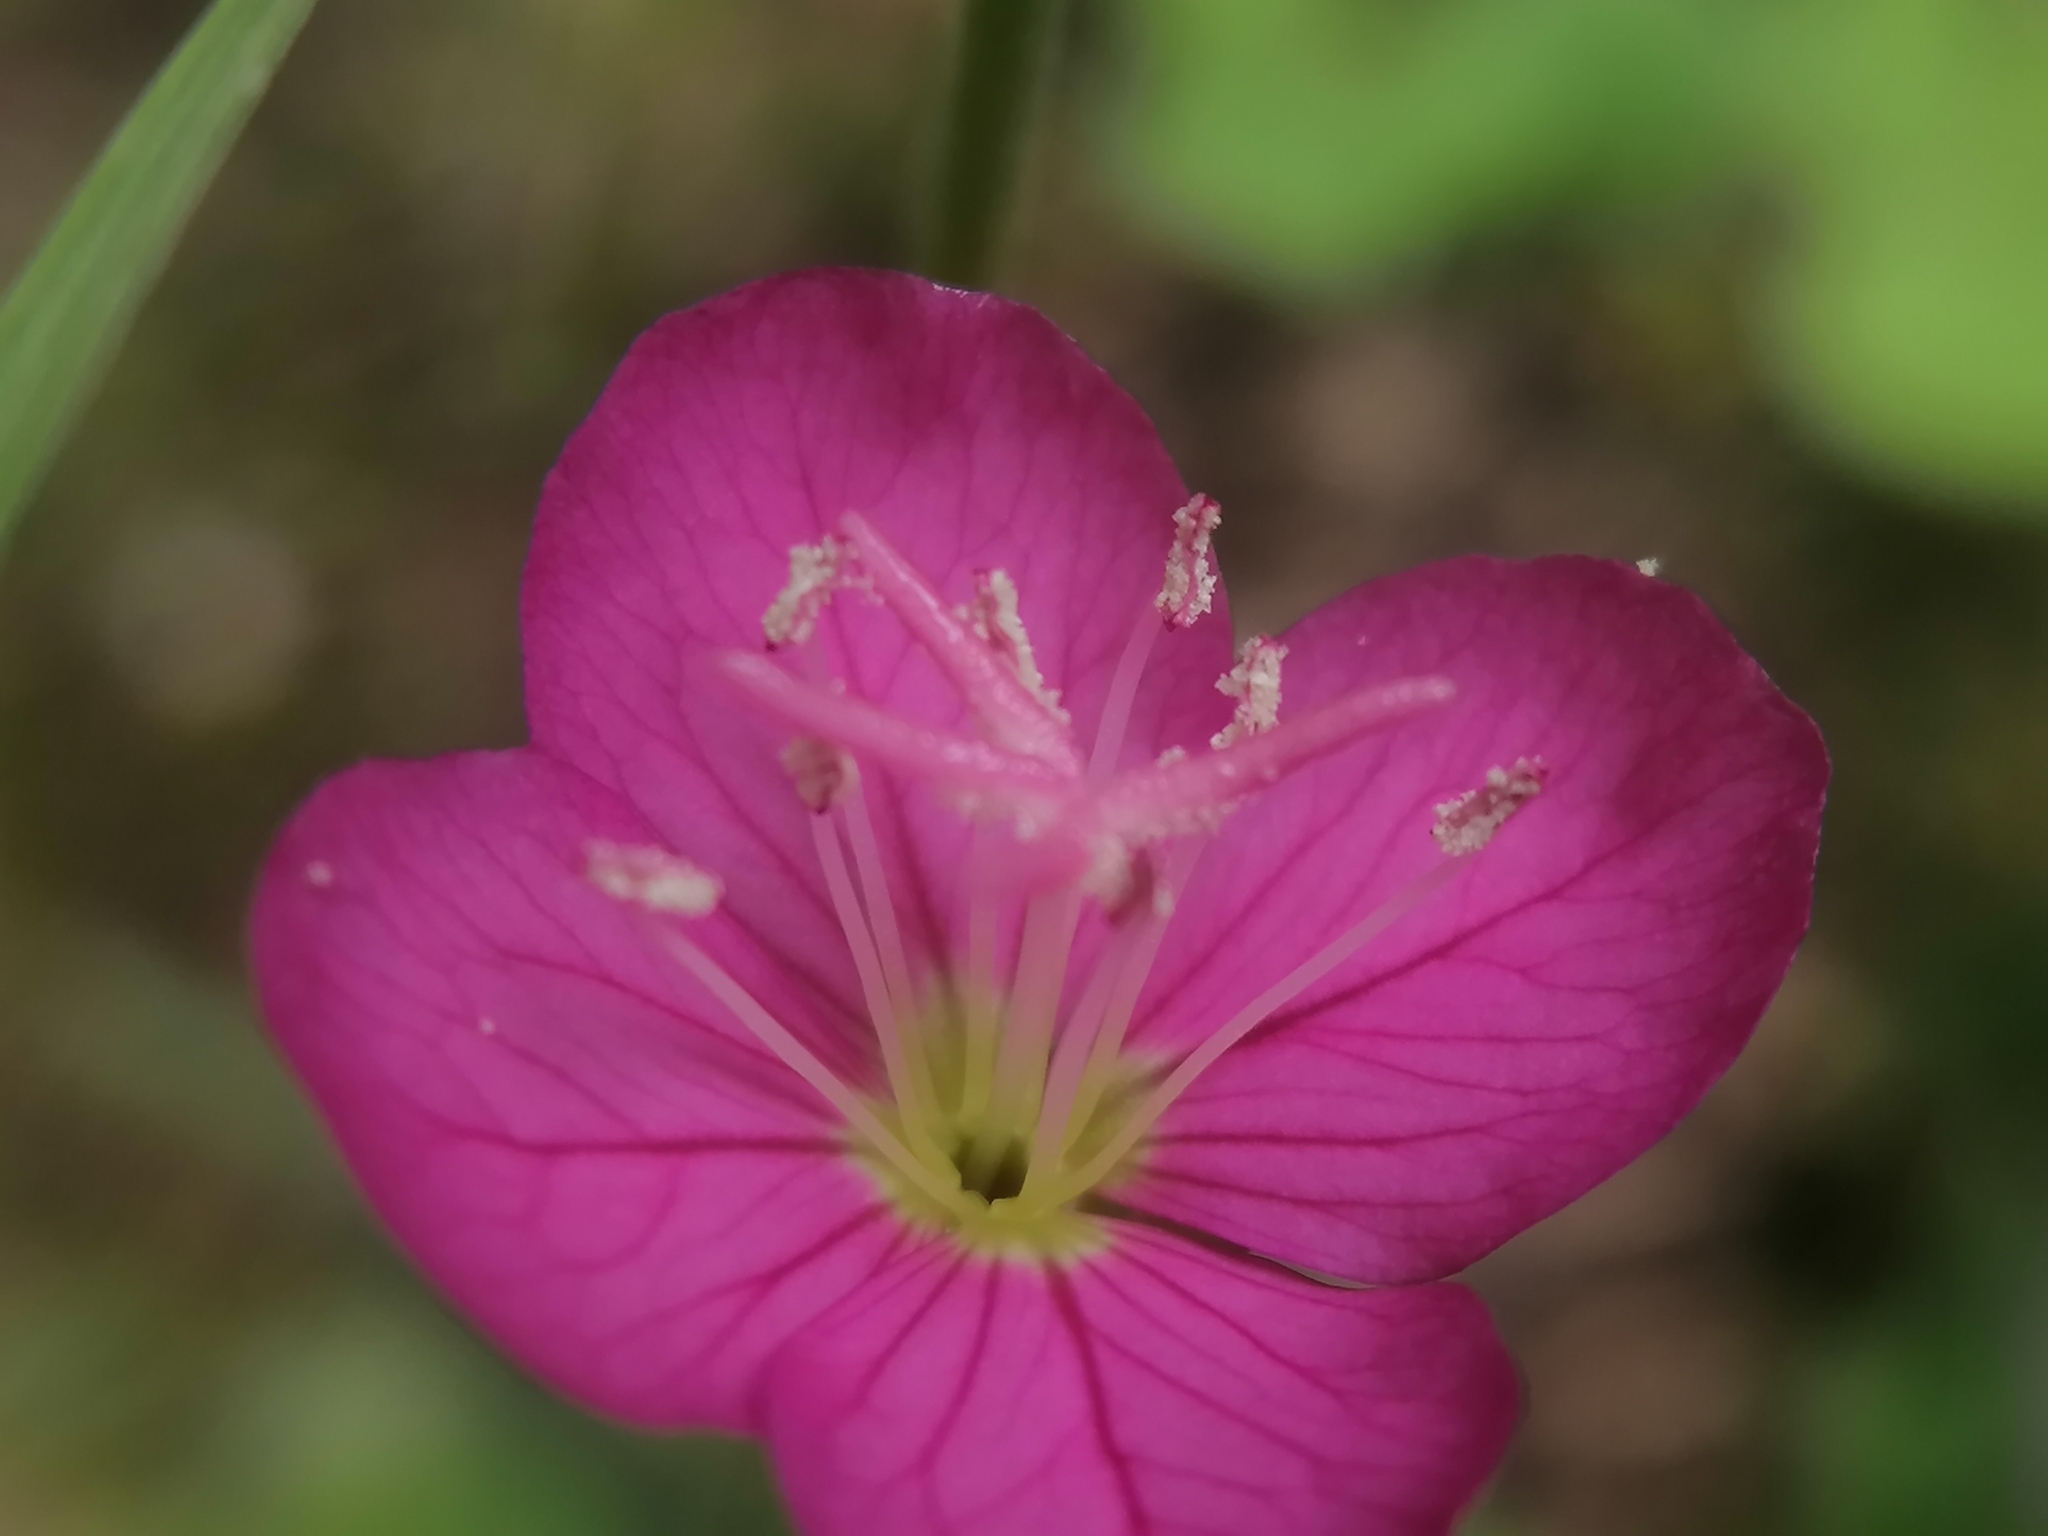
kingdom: Plantae
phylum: Tracheophyta
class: Magnoliopsida
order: Myrtales
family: Onagraceae
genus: Oenothera
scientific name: Oenothera rosea
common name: Rosy evening-primrose
